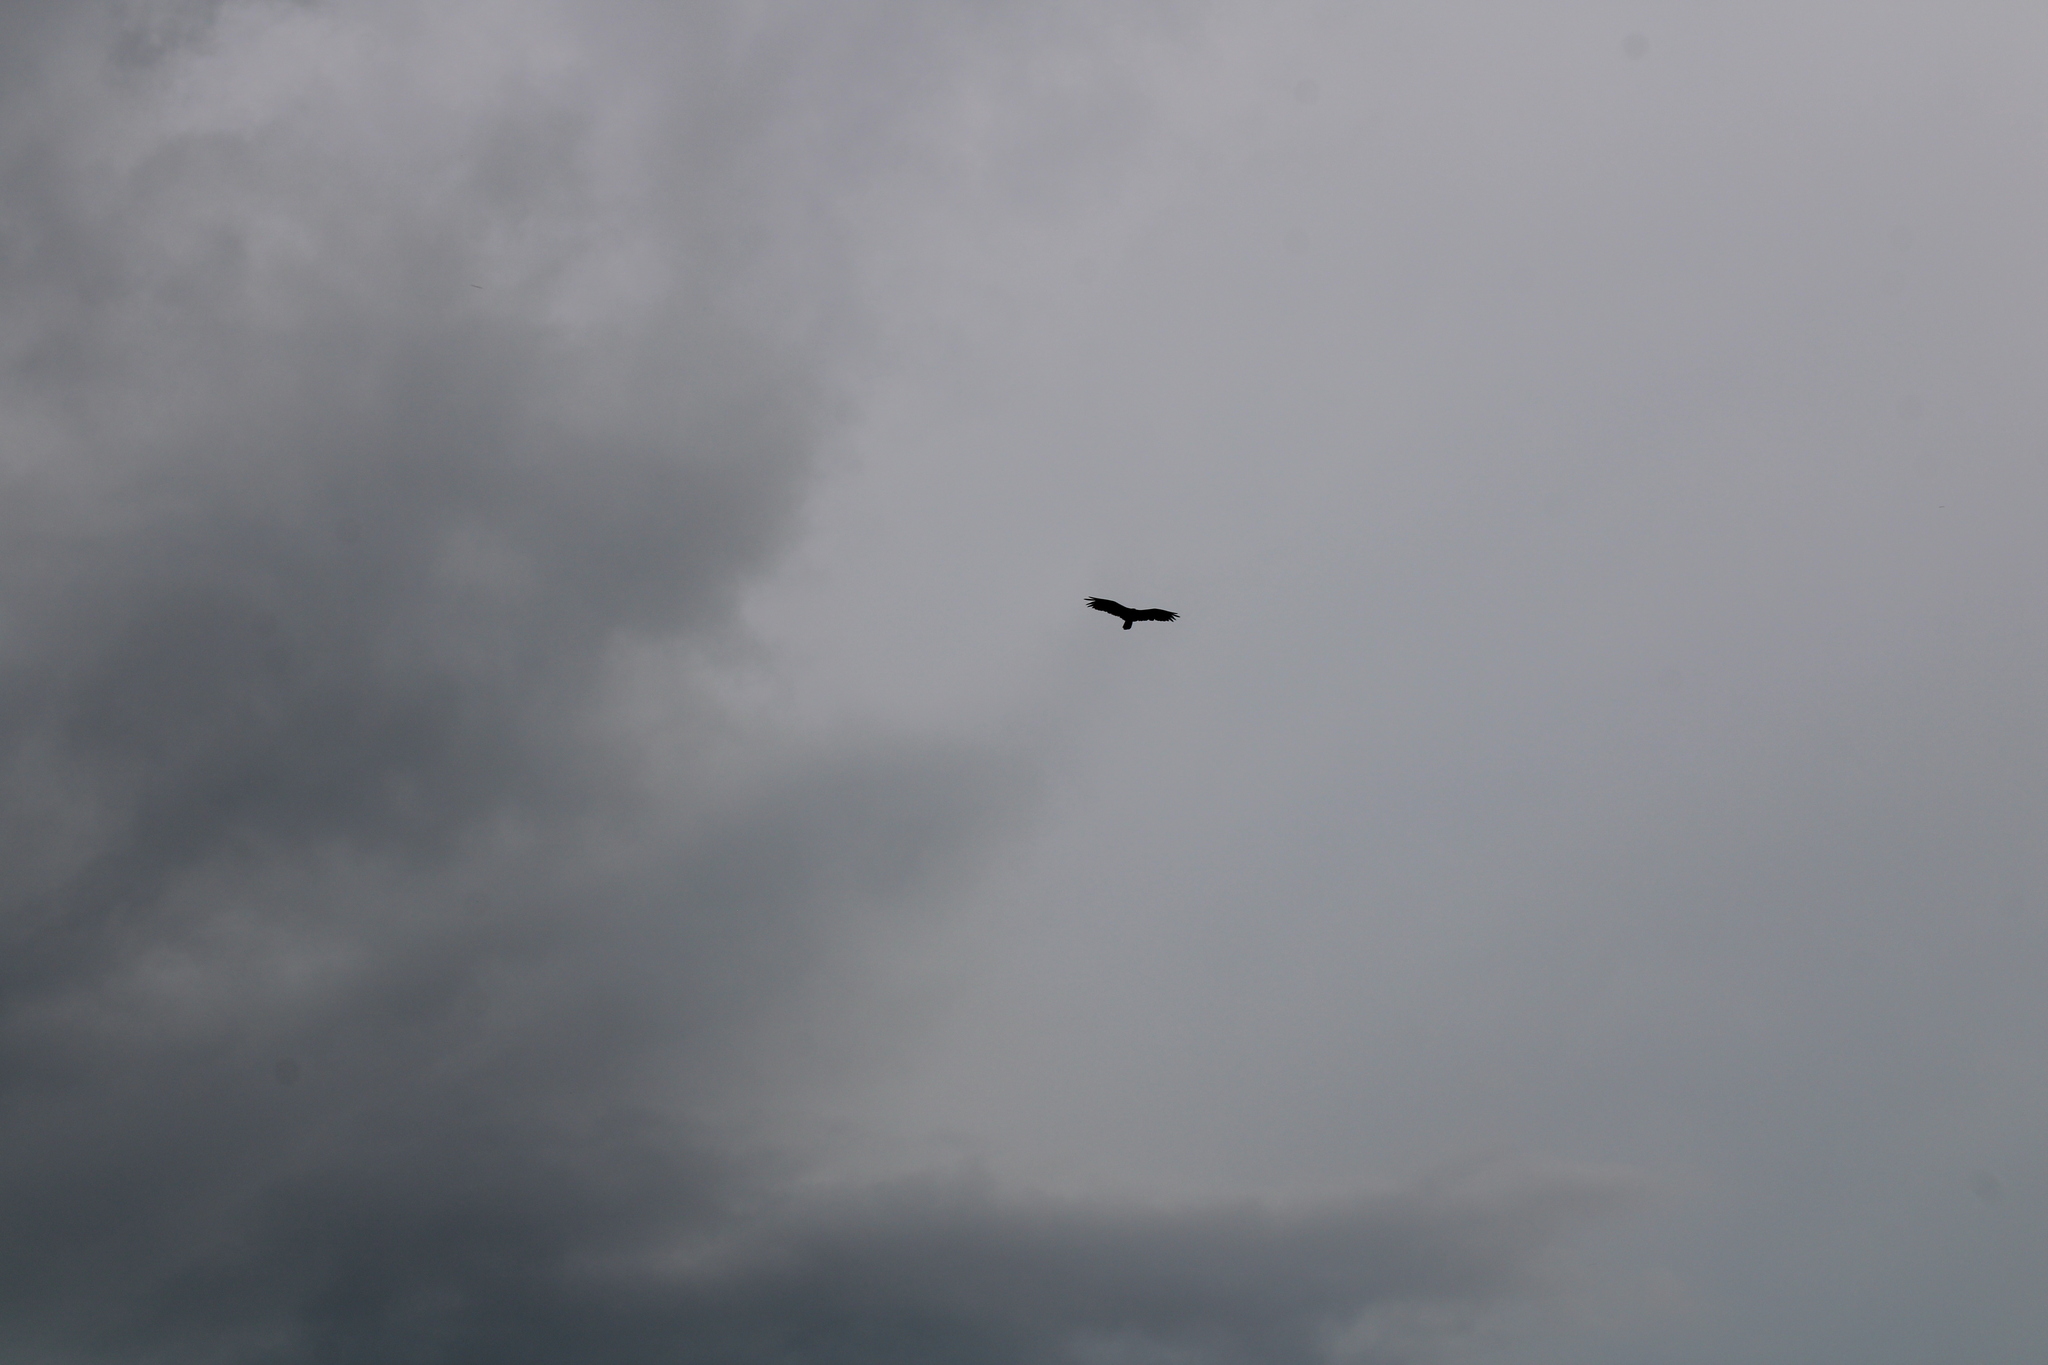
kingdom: Animalia
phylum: Chordata
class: Aves
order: Accipitriformes
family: Cathartidae
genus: Cathartes
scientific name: Cathartes aura
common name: Turkey vulture
